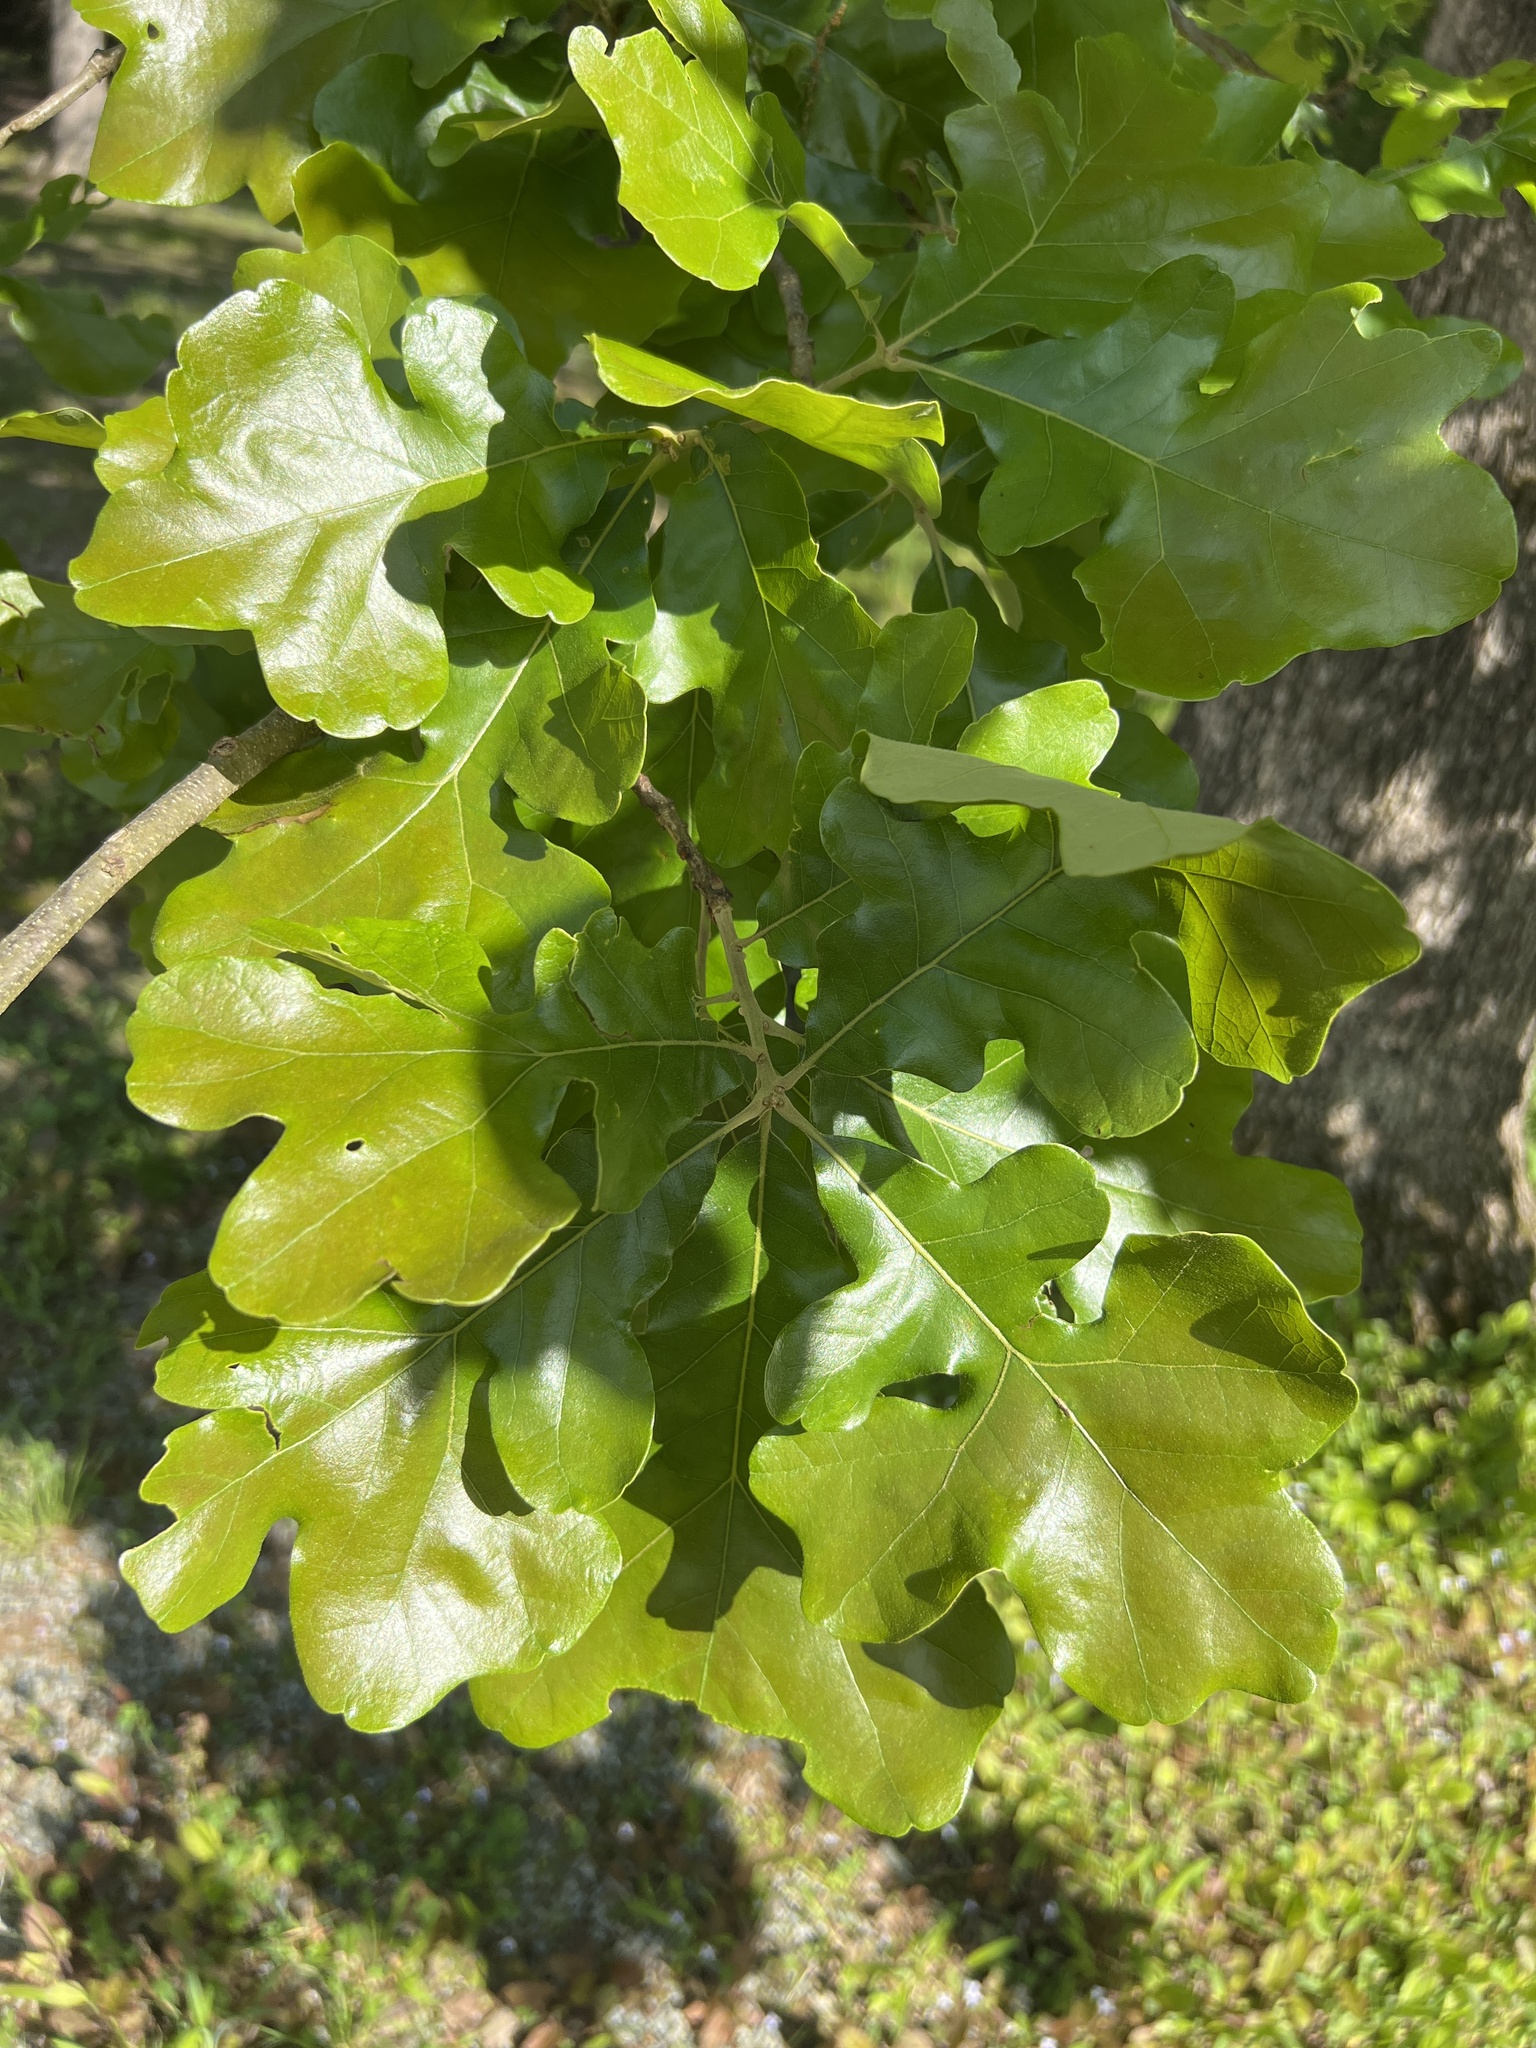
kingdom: Plantae
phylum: Tracheophyta
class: Magnoliopsida
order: Fagales
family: Fagaceae
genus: Quercus
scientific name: Quercus stellata
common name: Post oak
